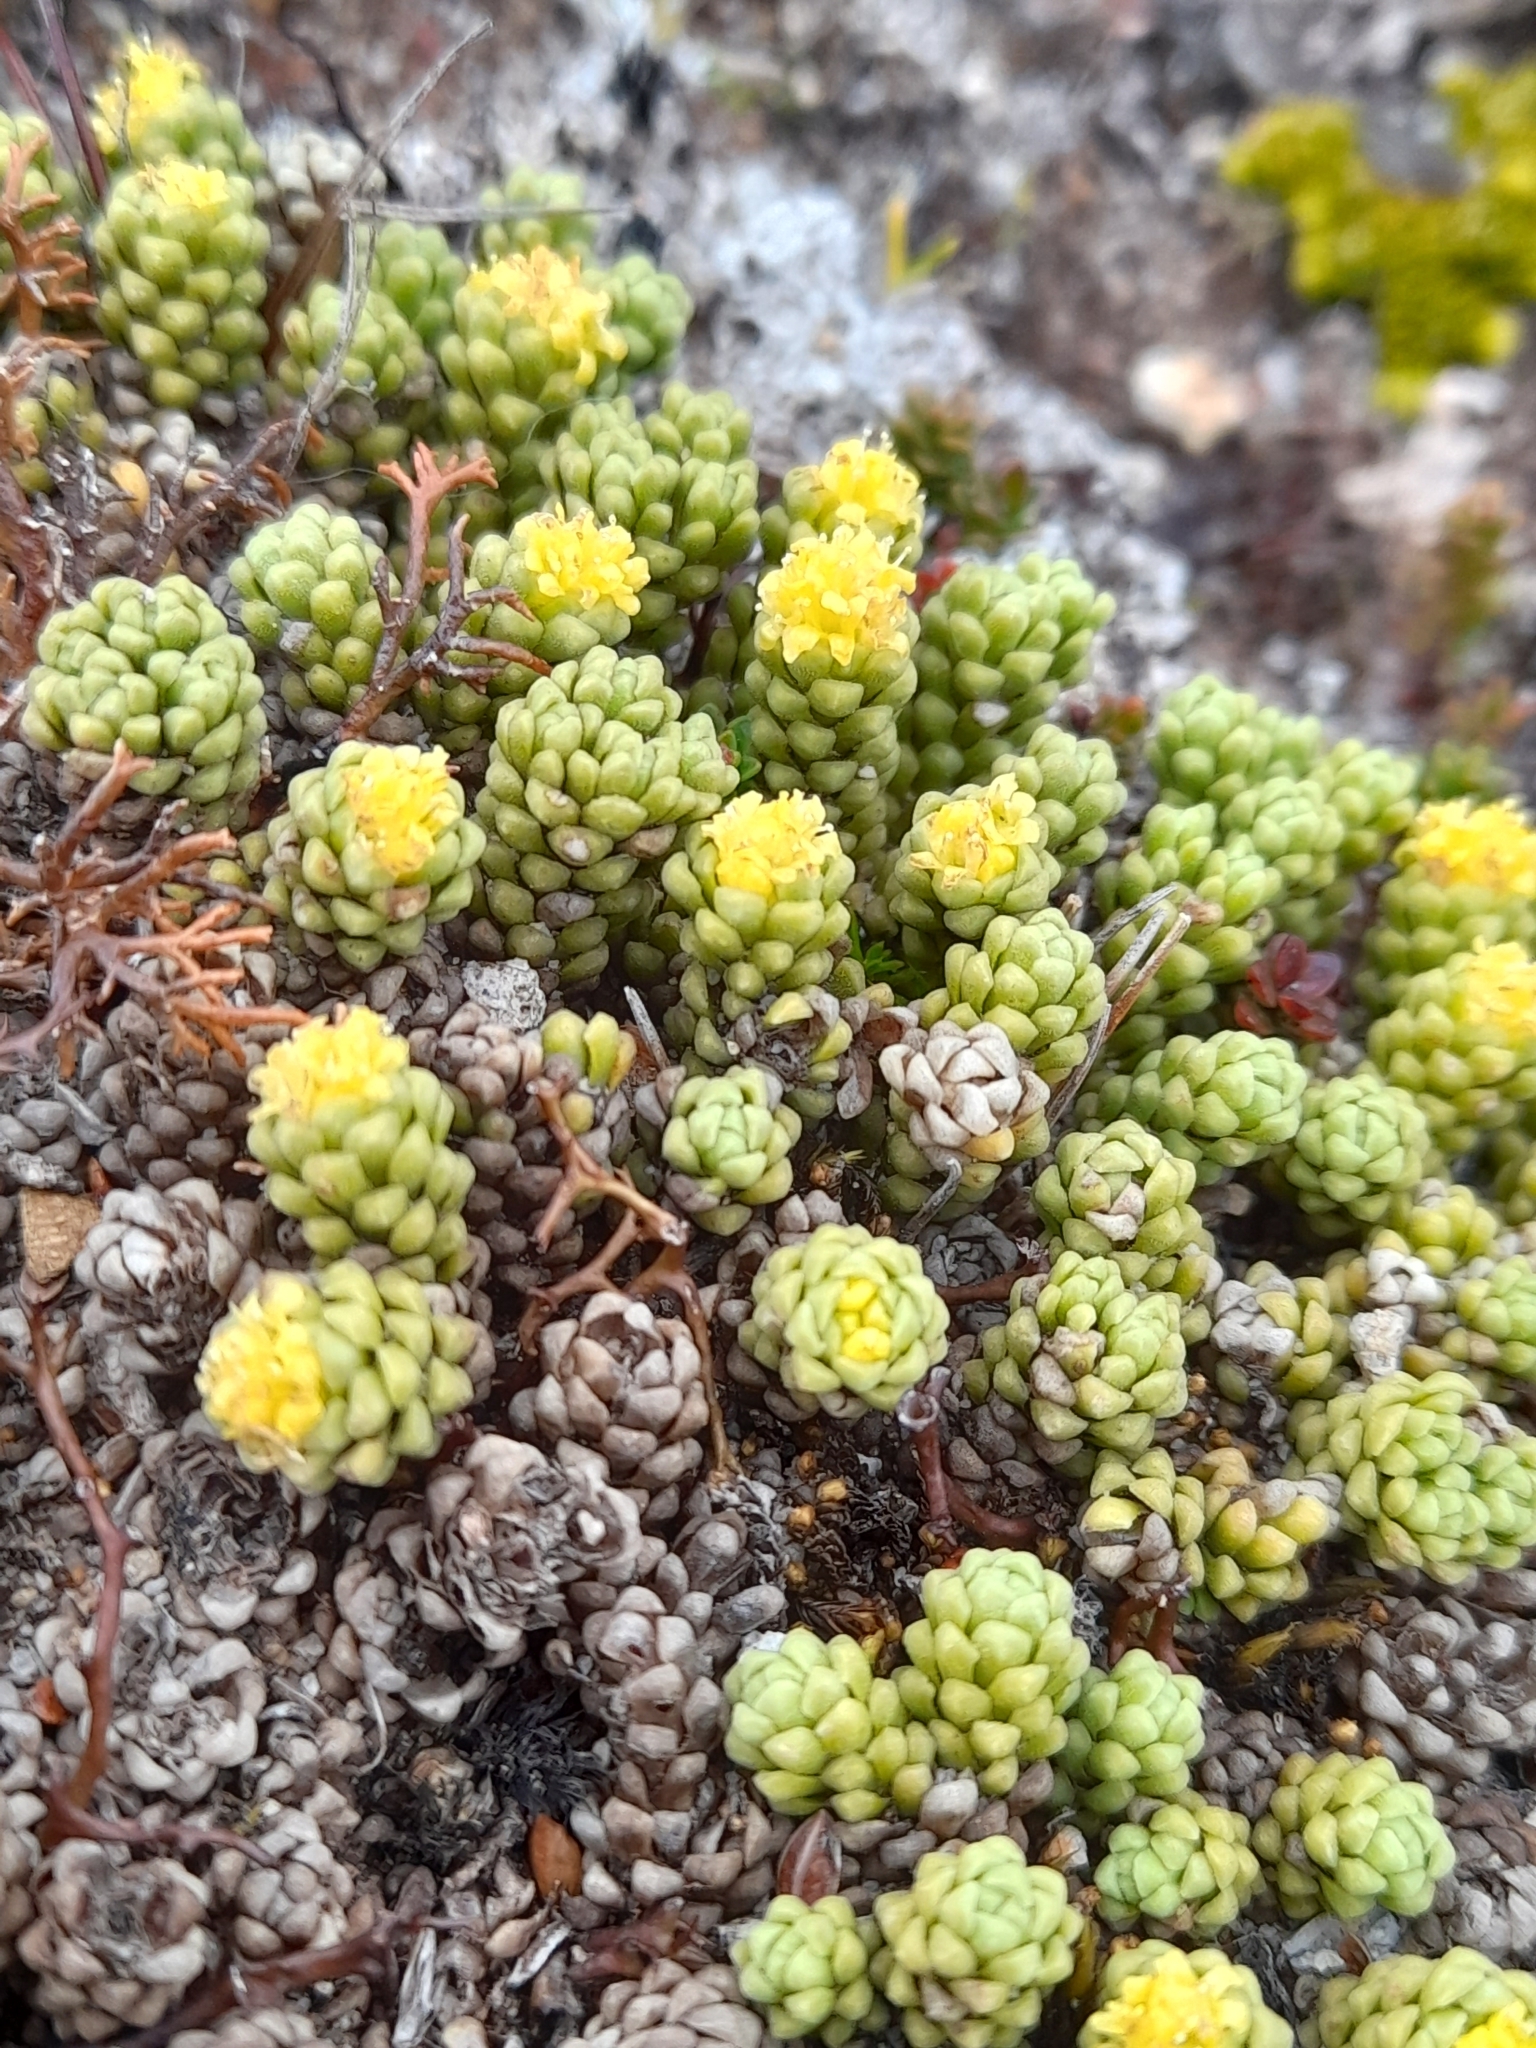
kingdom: Plantae
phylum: Tracheophyta
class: Magnoliopsida
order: Dipsacales
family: Caprifoliaceae
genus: Valeriana
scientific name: Valeriana sedifolia
